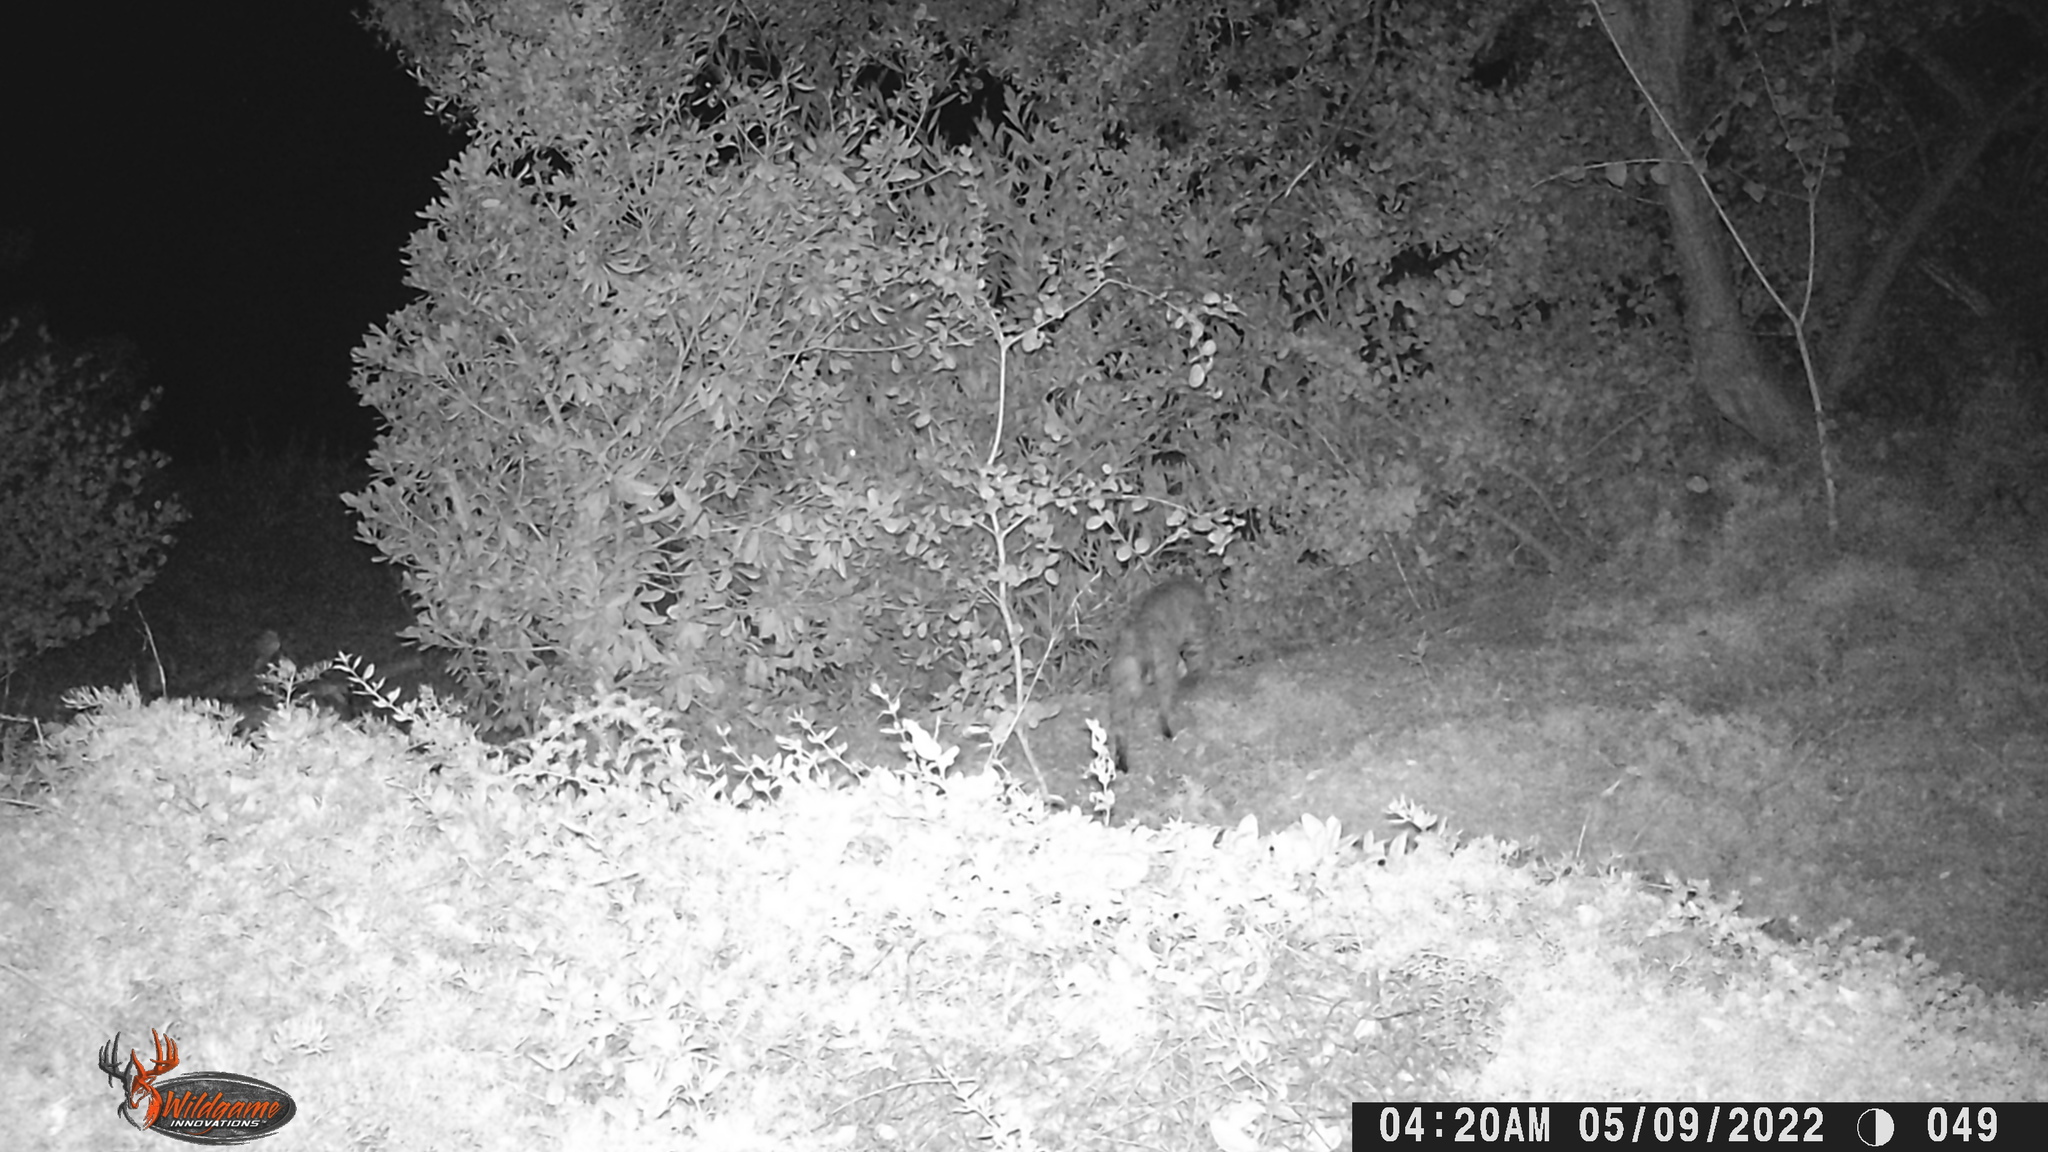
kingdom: Animalia
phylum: Chordata
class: Mammalia
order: Carnivora
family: Felidae
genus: Lynx
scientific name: Lynx rufus
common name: Bobcat
